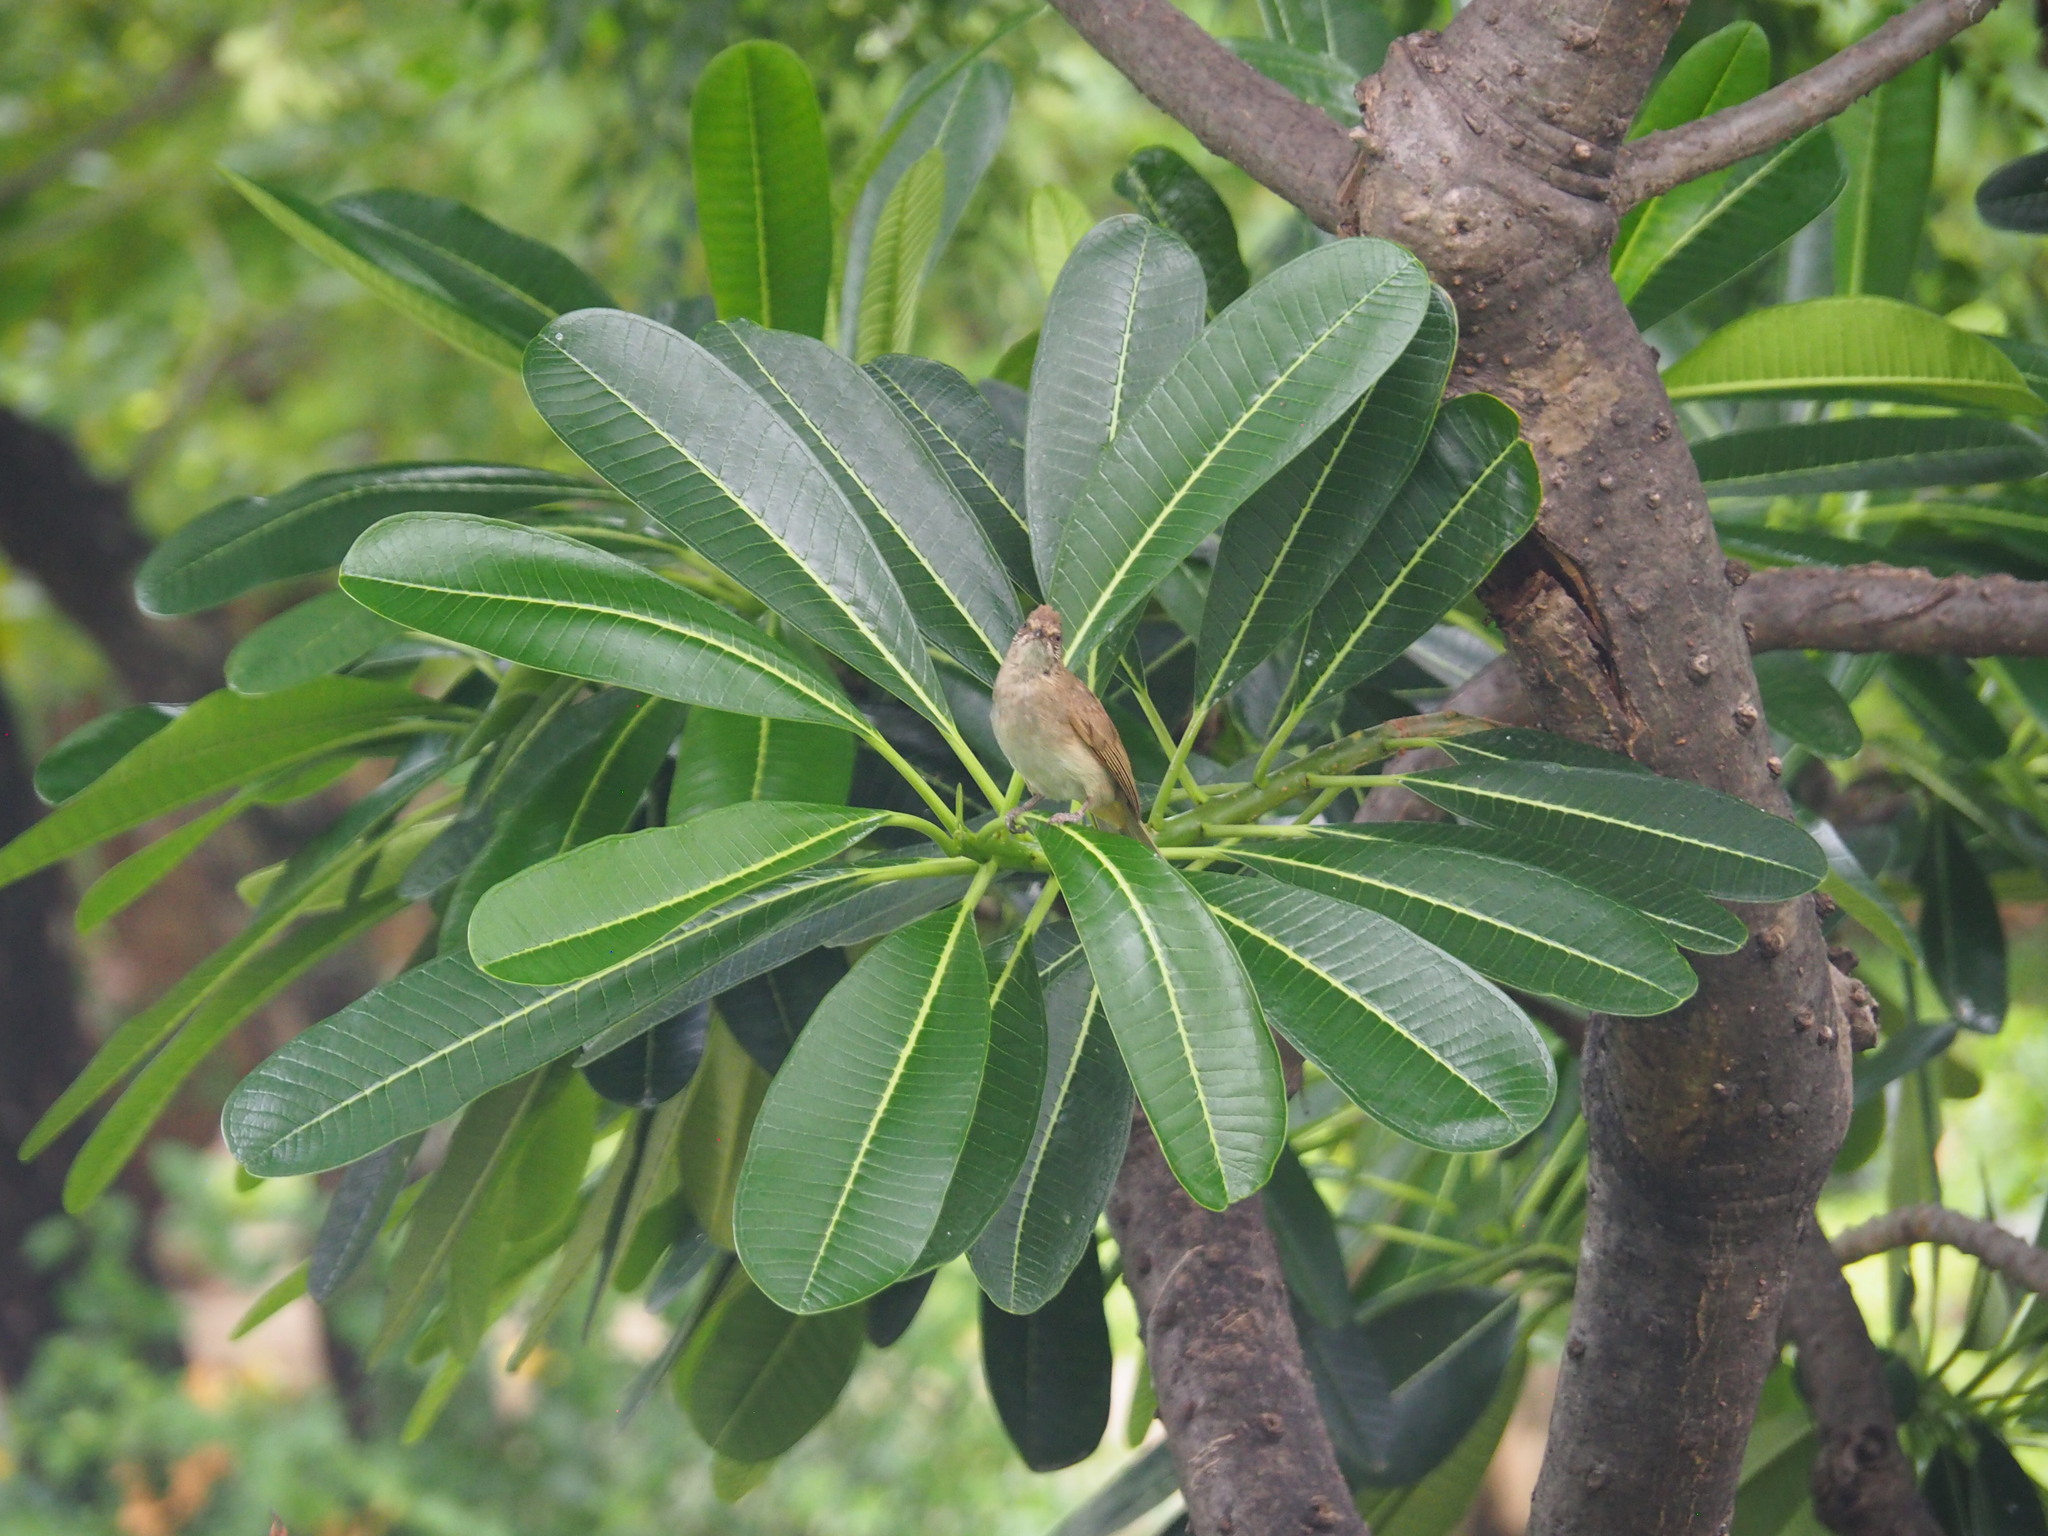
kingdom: Animalia
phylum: Chordata
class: Aves
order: Passeriformes
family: Pycnonotidae
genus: Pycnonotus
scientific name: Pycnonotus blanfordi
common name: Streak-eared bulbul
